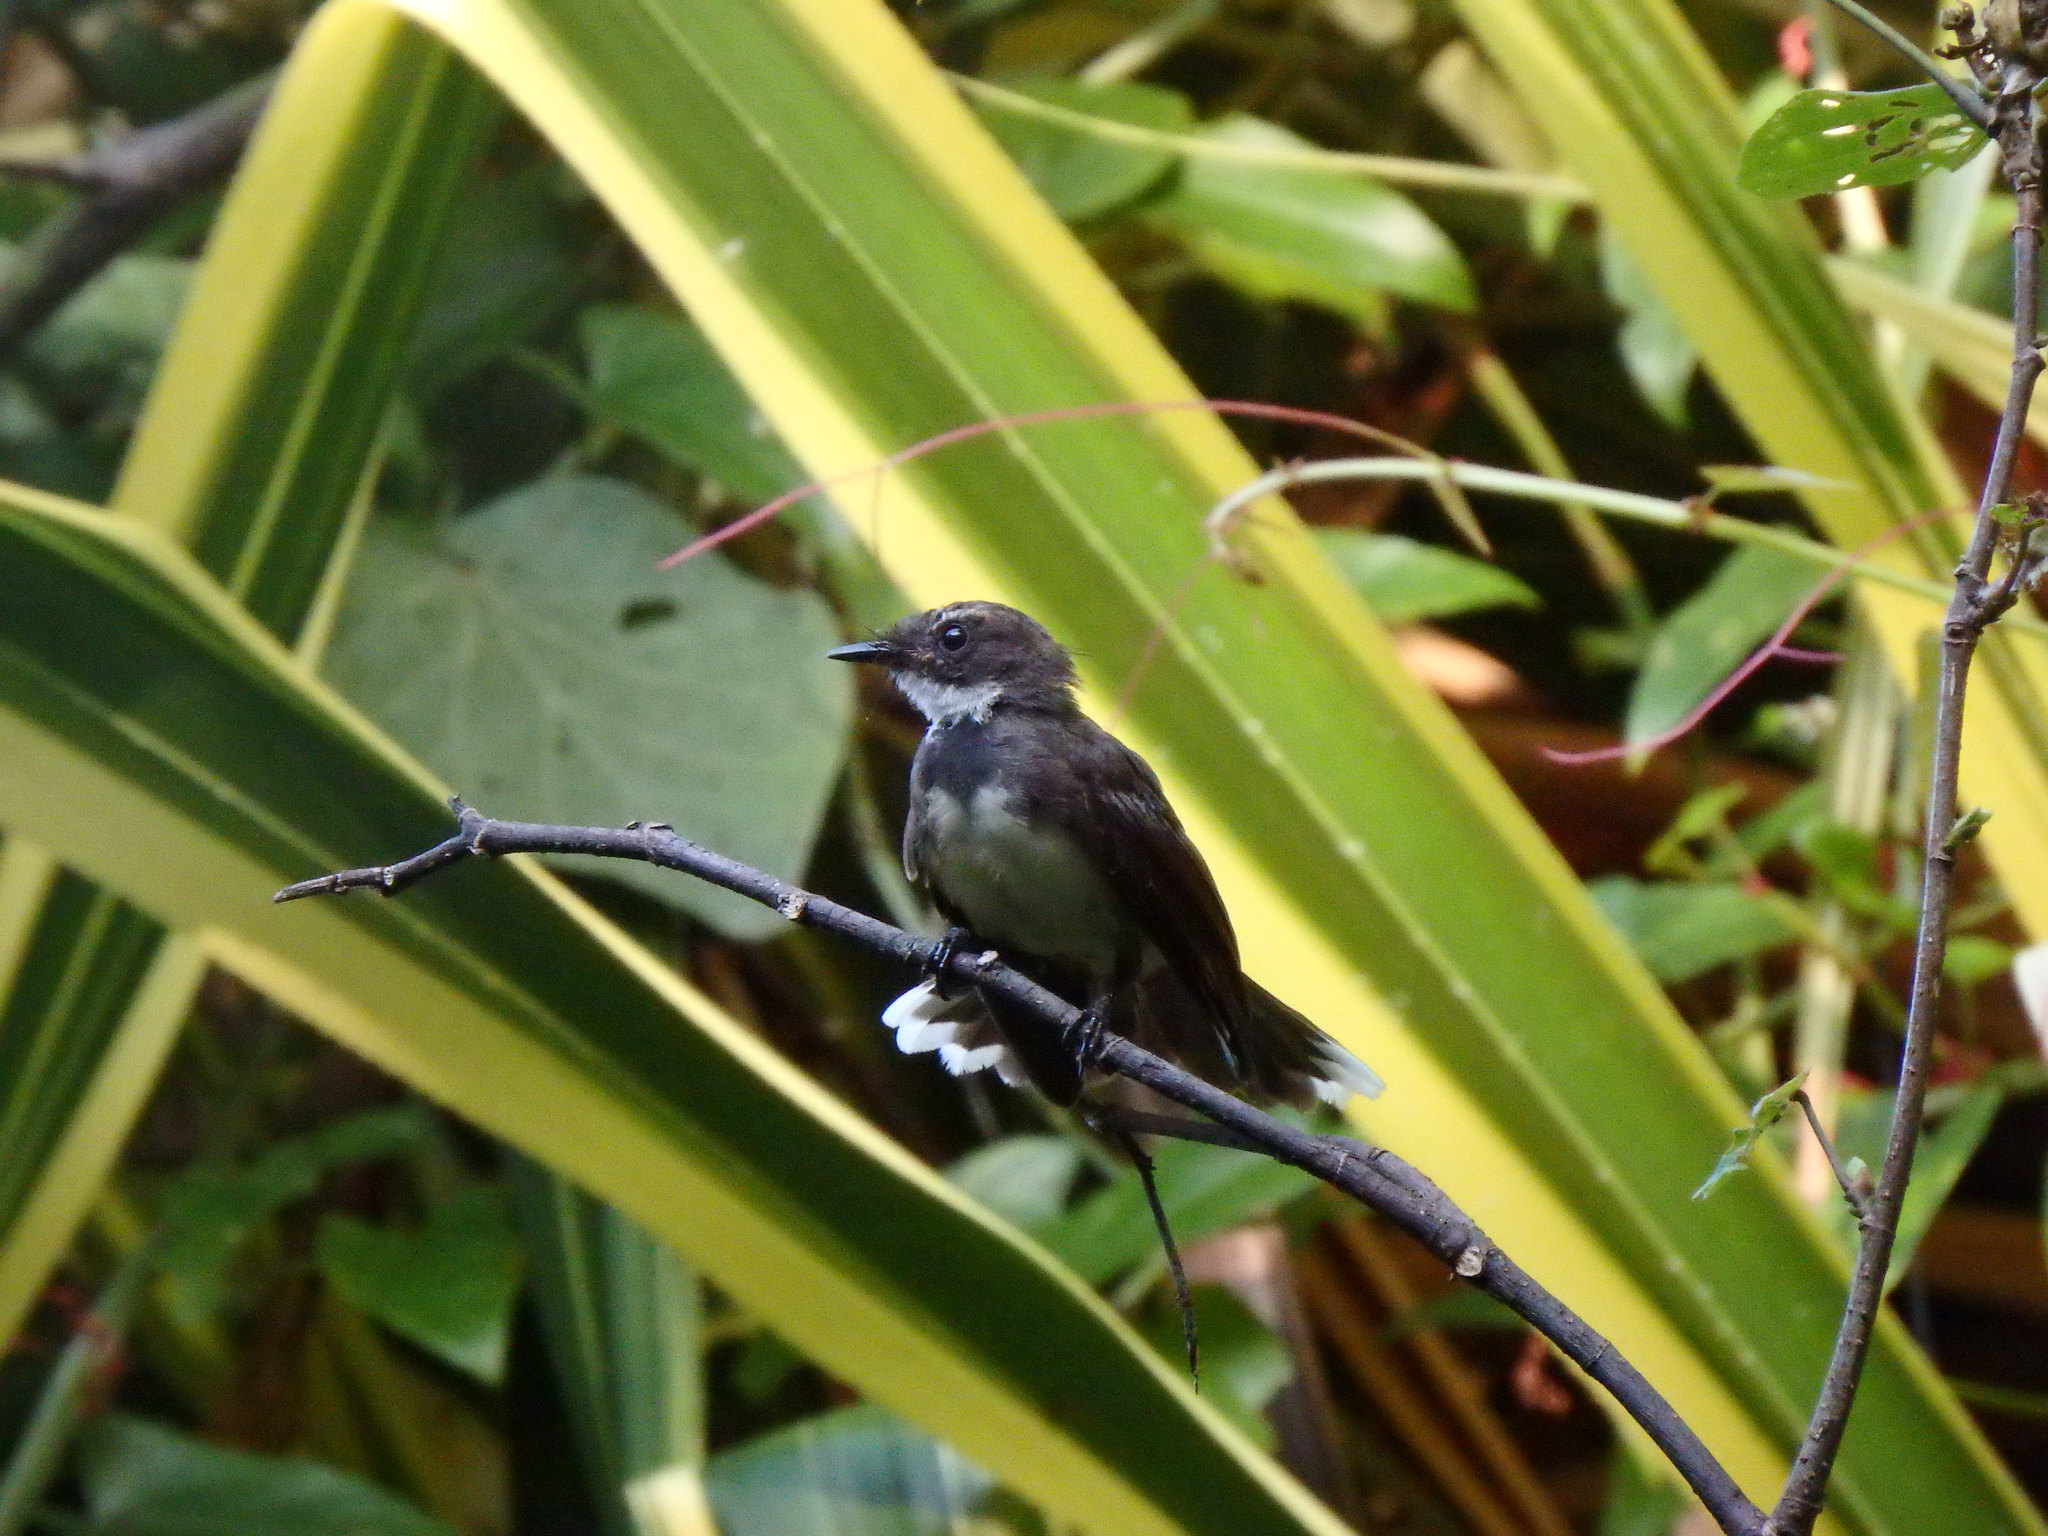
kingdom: Animalia
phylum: Chordata
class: Aves
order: Passeriformes
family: Rhipiduridae
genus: Rhipidura
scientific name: Rhipidura javanica
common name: Pied fantail
